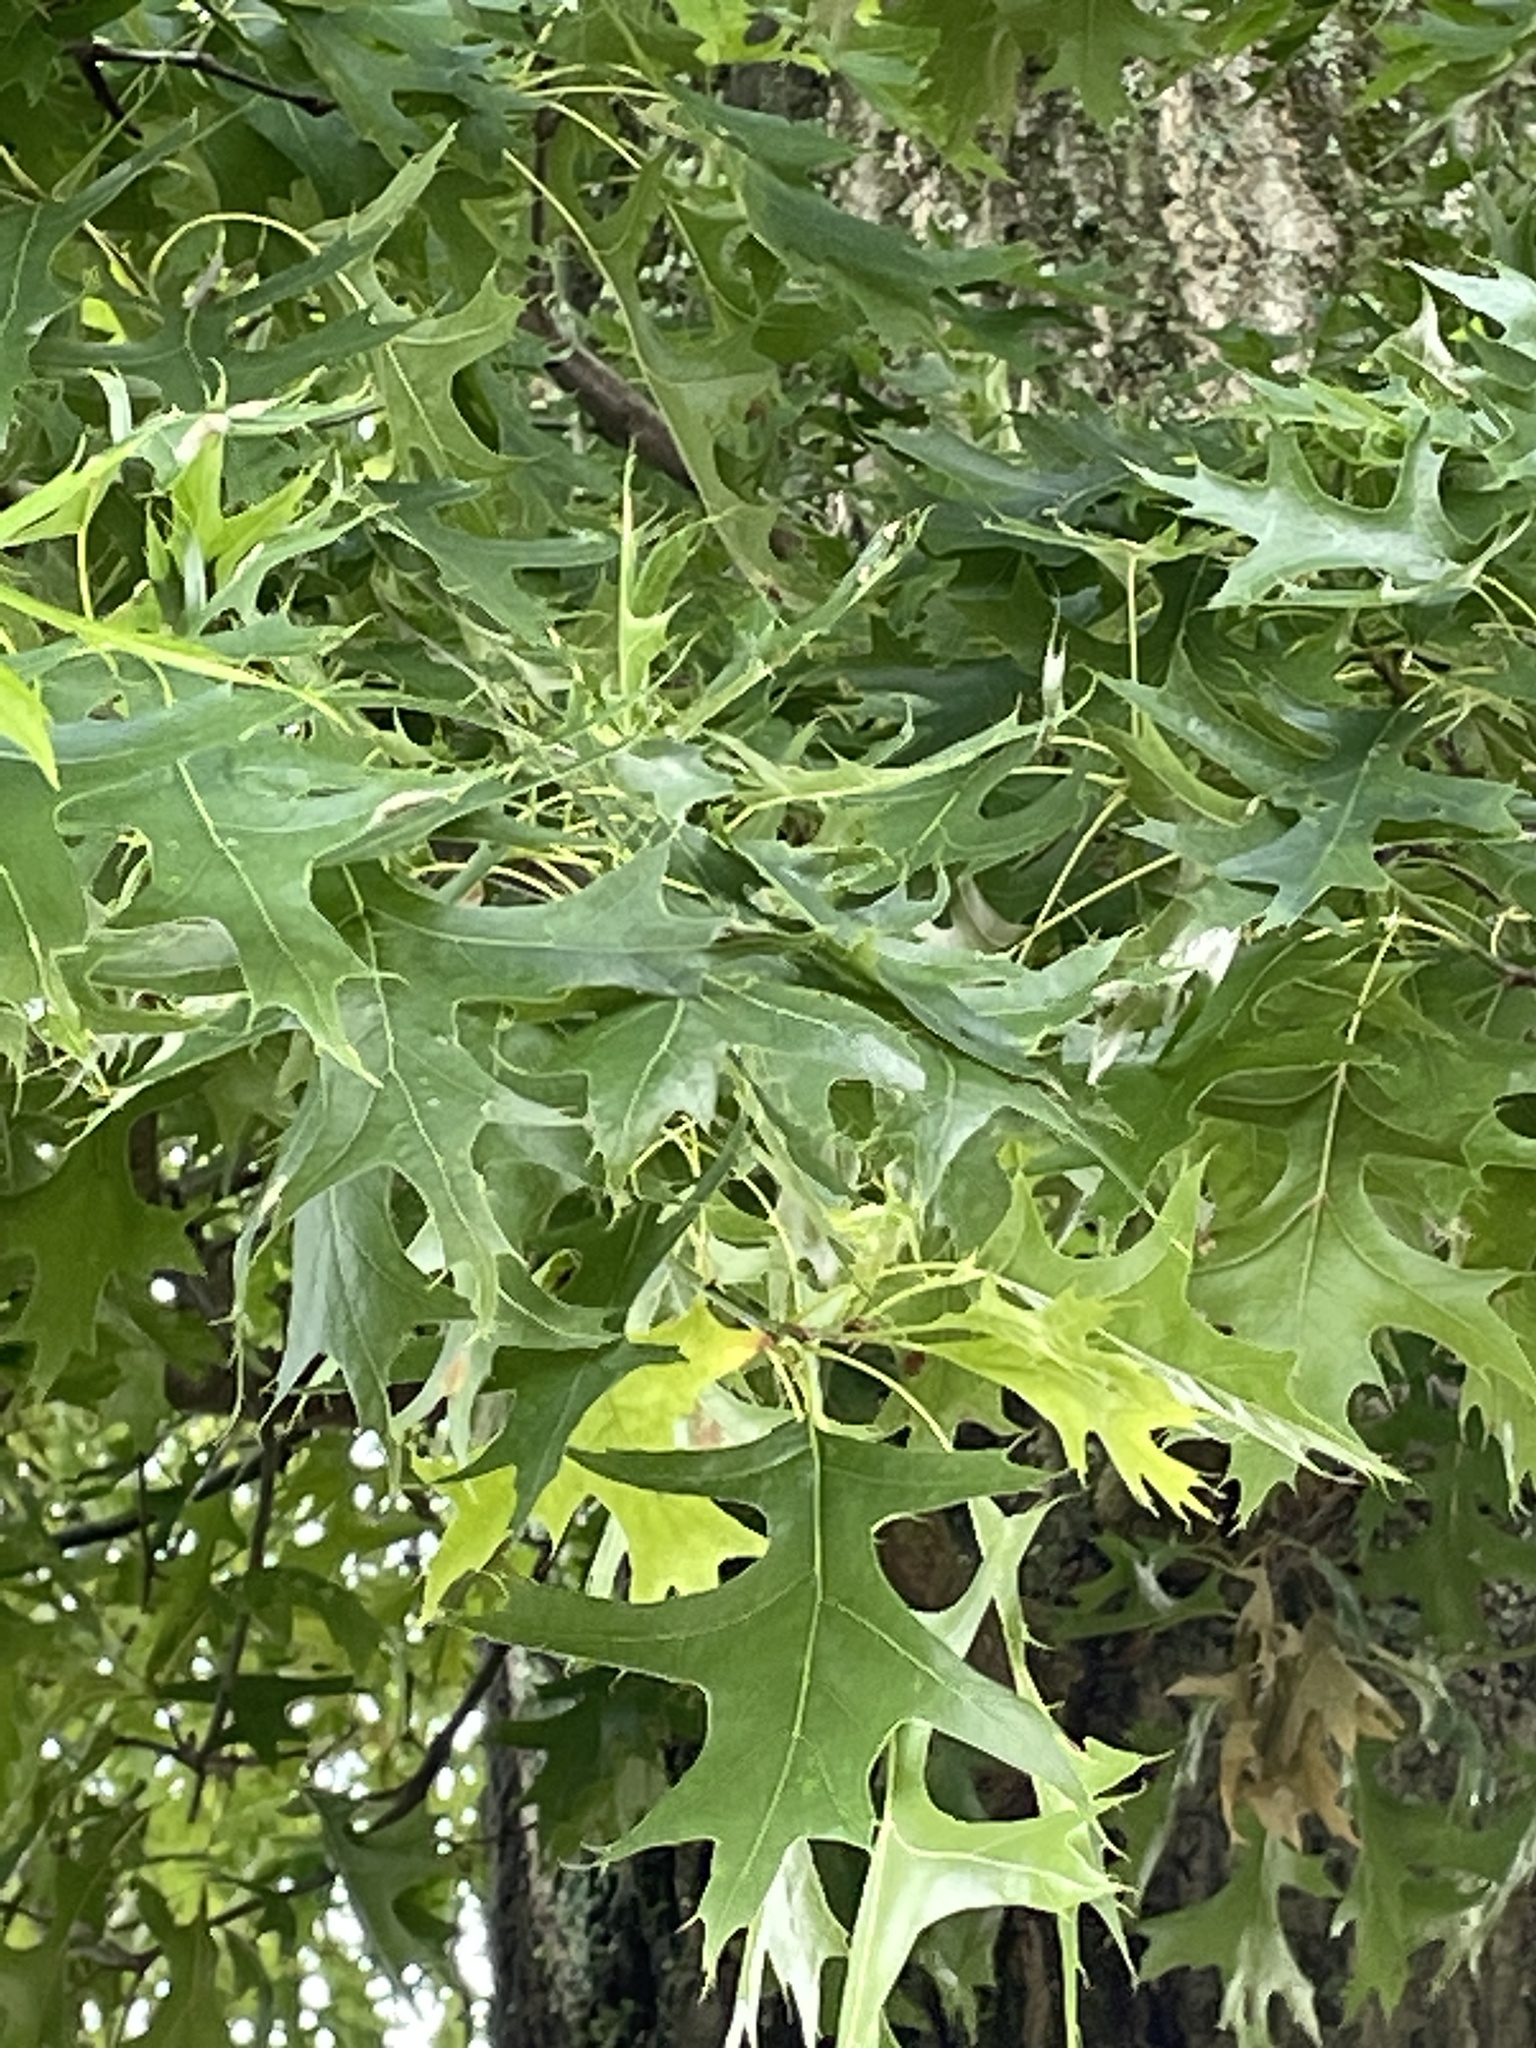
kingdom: Plantae
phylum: Tracheophyta
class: Magnoliopsida
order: Fagales
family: Fagaceae
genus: Quercus
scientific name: Quercus palustris
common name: Pin oak
